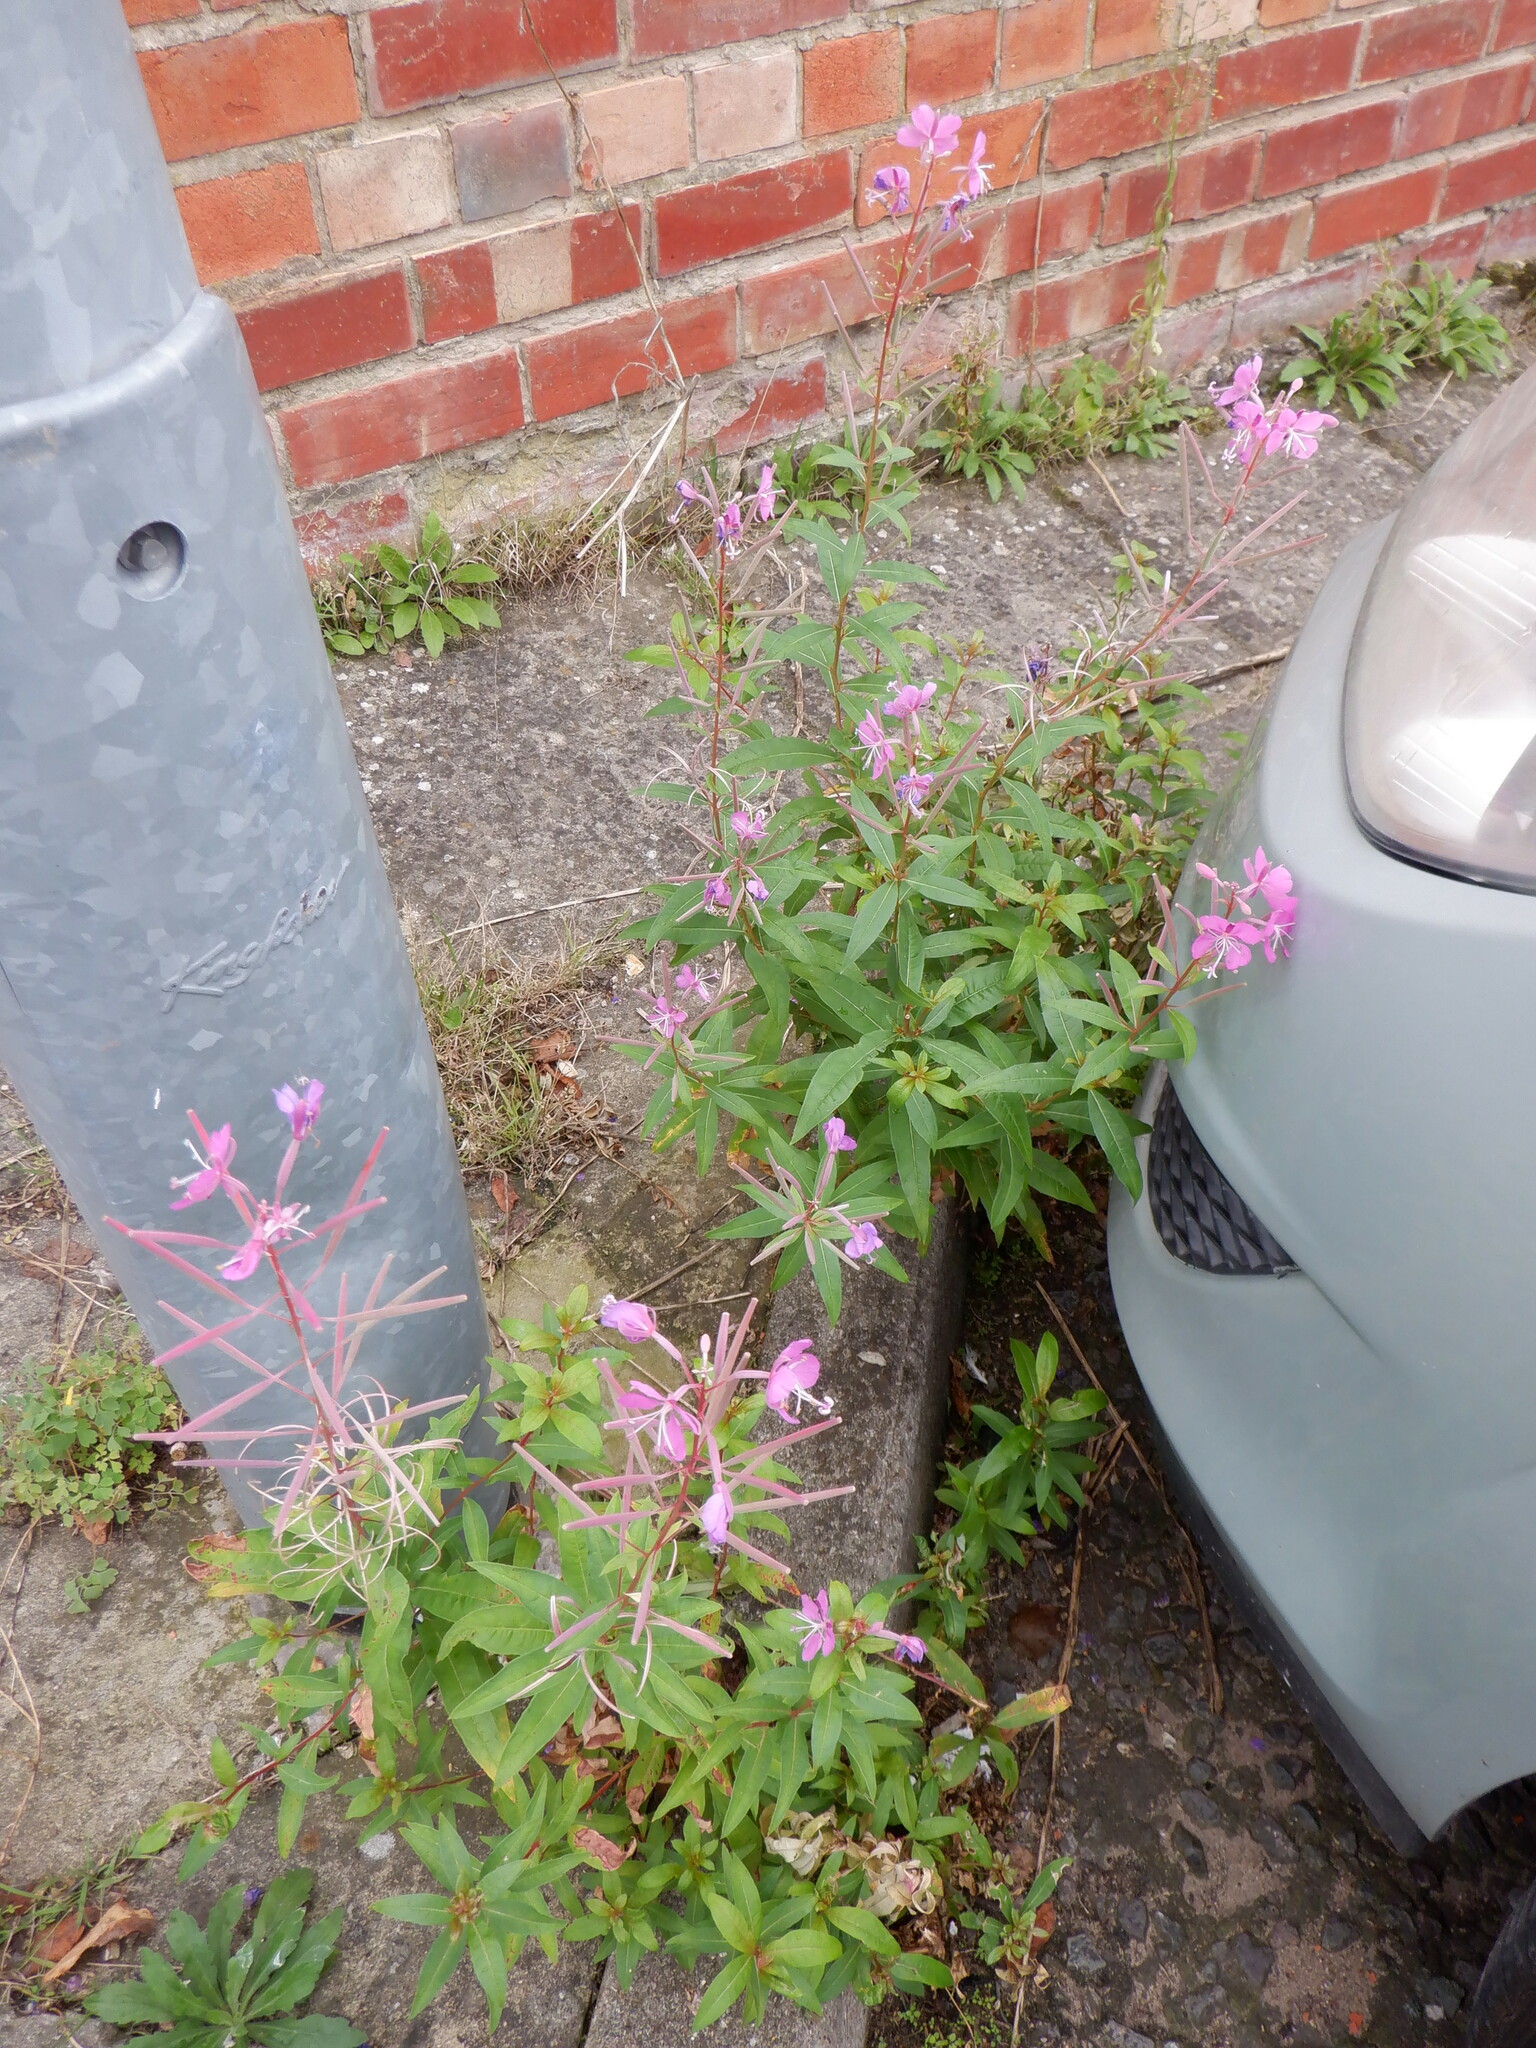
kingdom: Plantae
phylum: Tracheophyta
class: Magnoliopsida
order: Myrtales
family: Onagraceae
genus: Chamaenerion
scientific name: Chamaenerion angustifolium
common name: Fireweed
